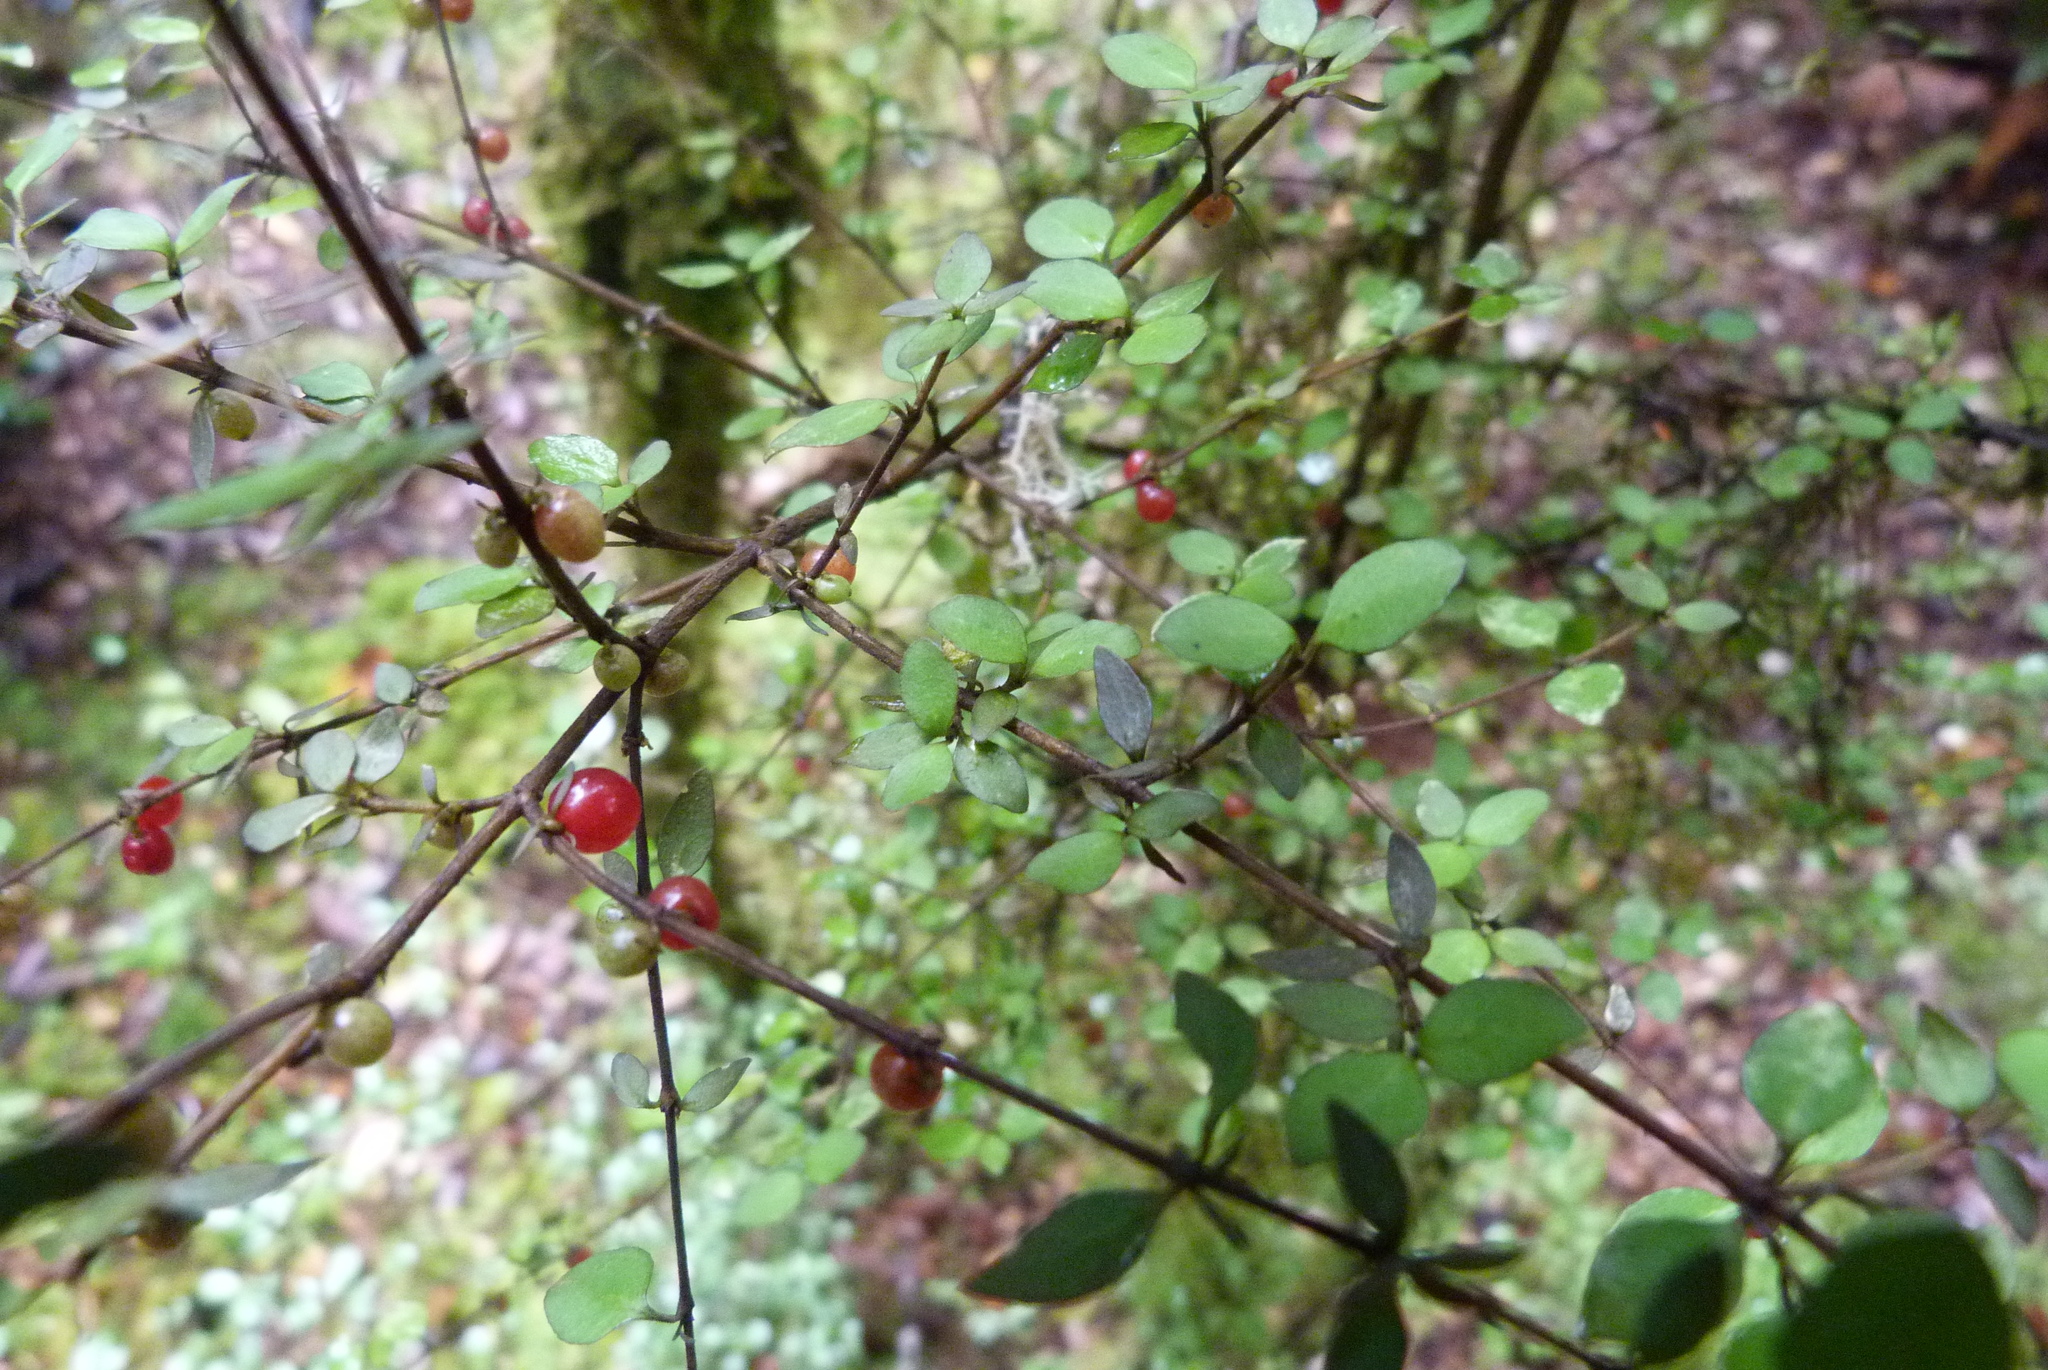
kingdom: Plantae
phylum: Tracheophyta
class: Magnoliopsida
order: Gentianales
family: Rubiaceae
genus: Coprosma
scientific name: Coprosma rhamnoides
